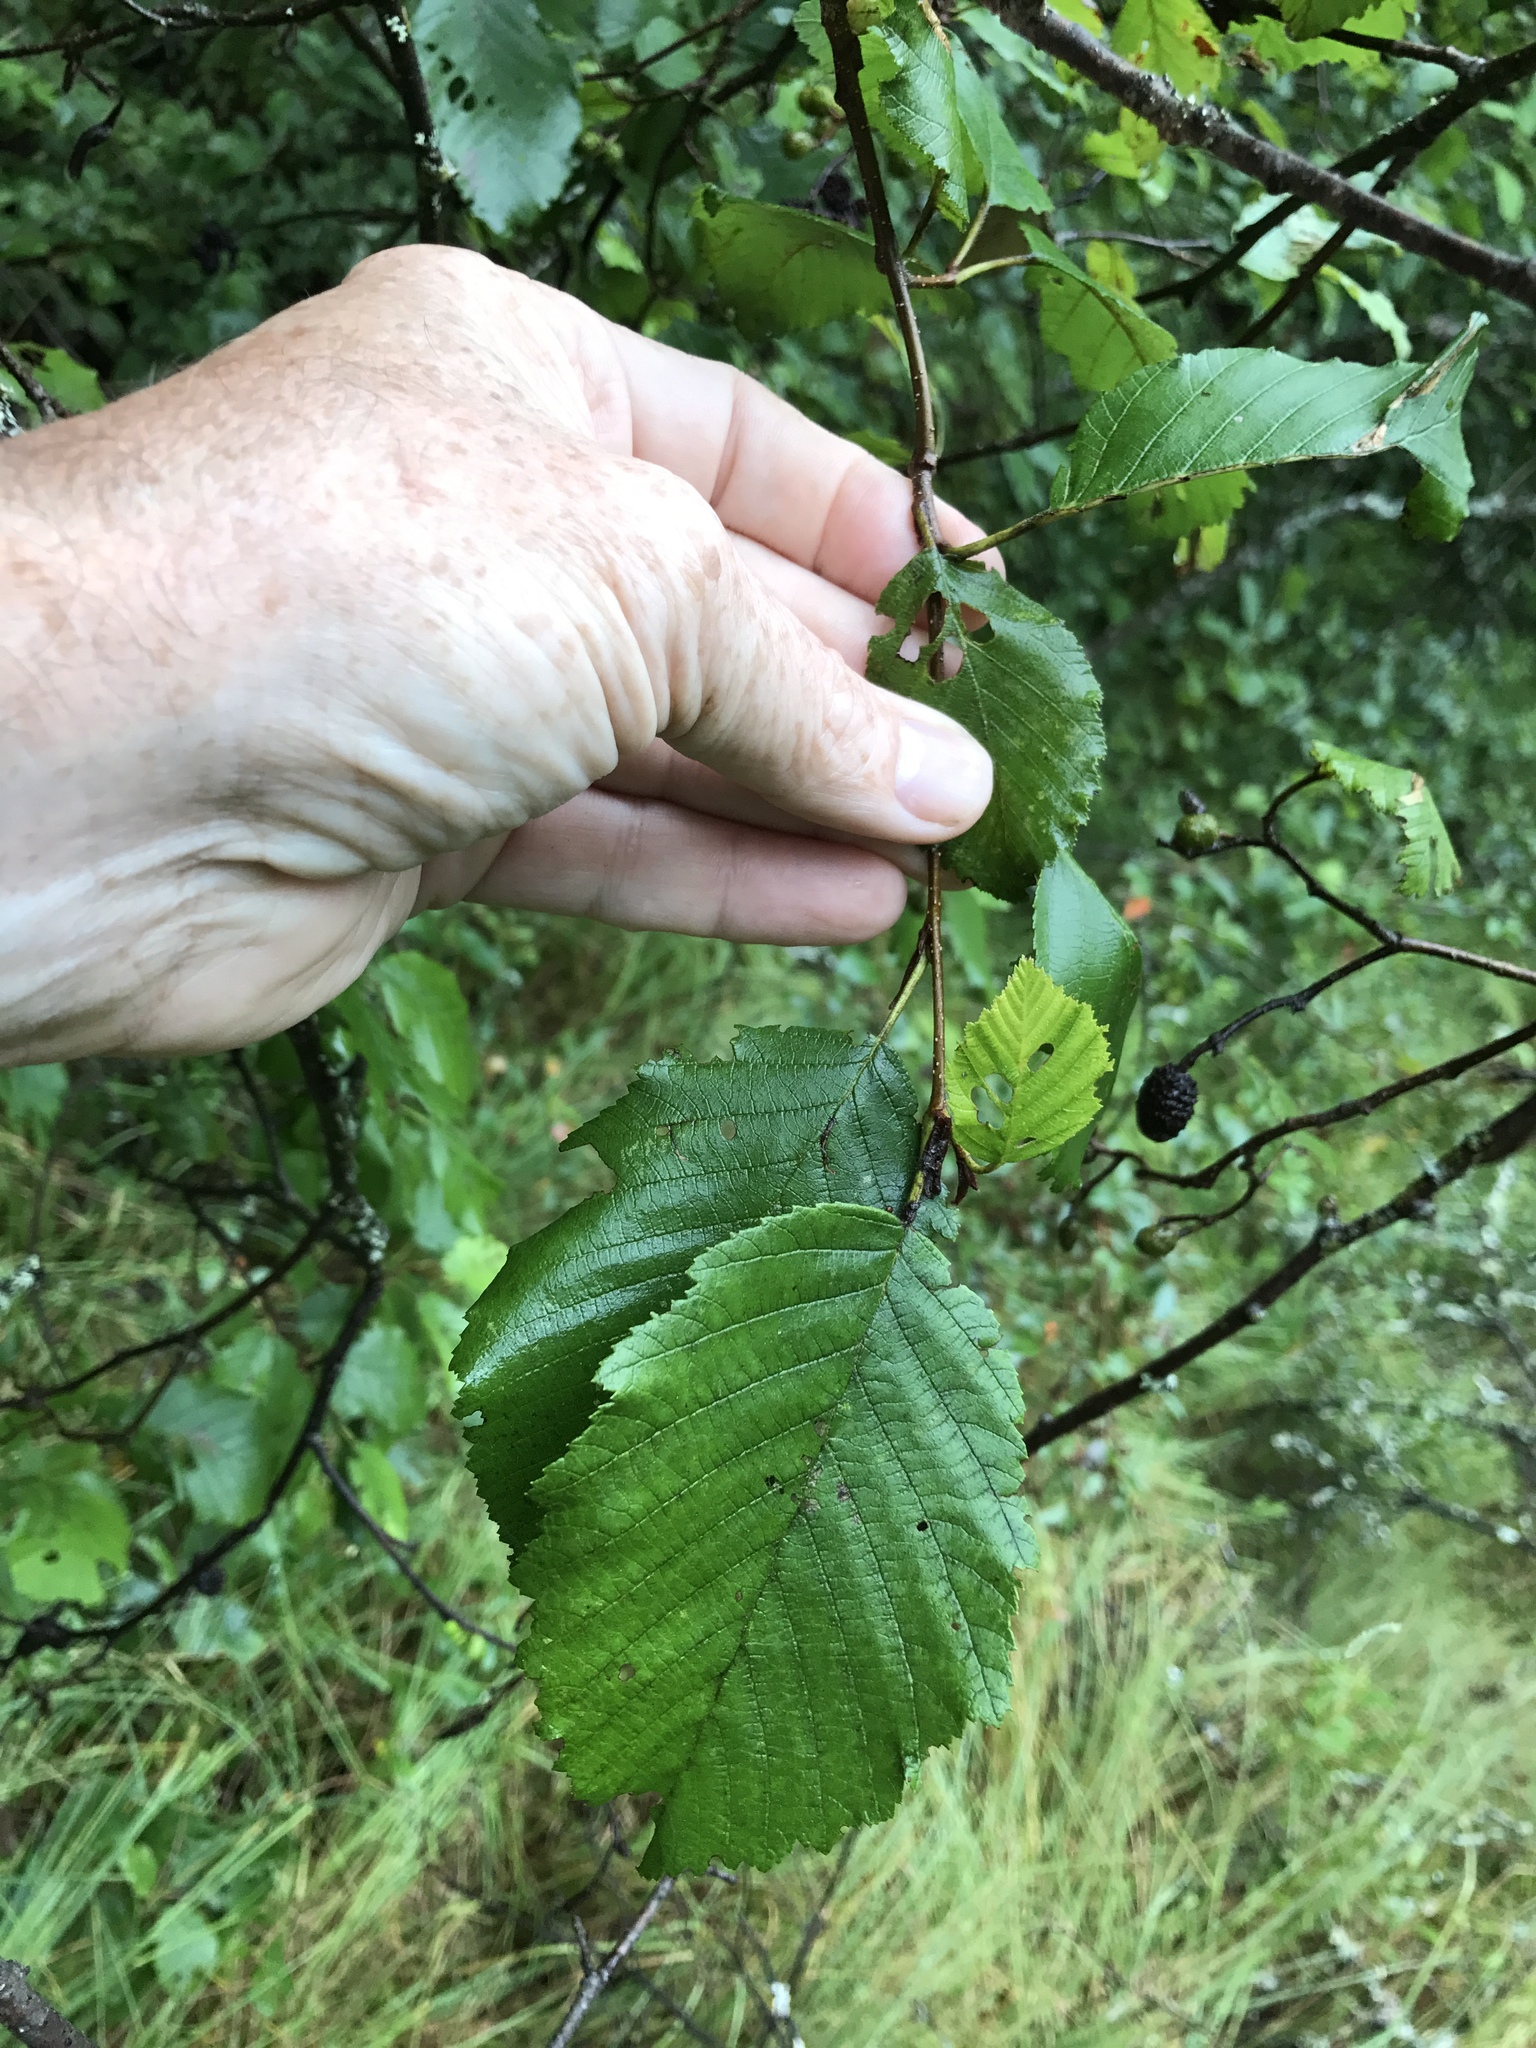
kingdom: Plantae
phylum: Tracheophyta
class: Magnoliopsida
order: Fagales
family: Betulaceae
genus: Alnus
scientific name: Alnus incana
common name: Grey alder
